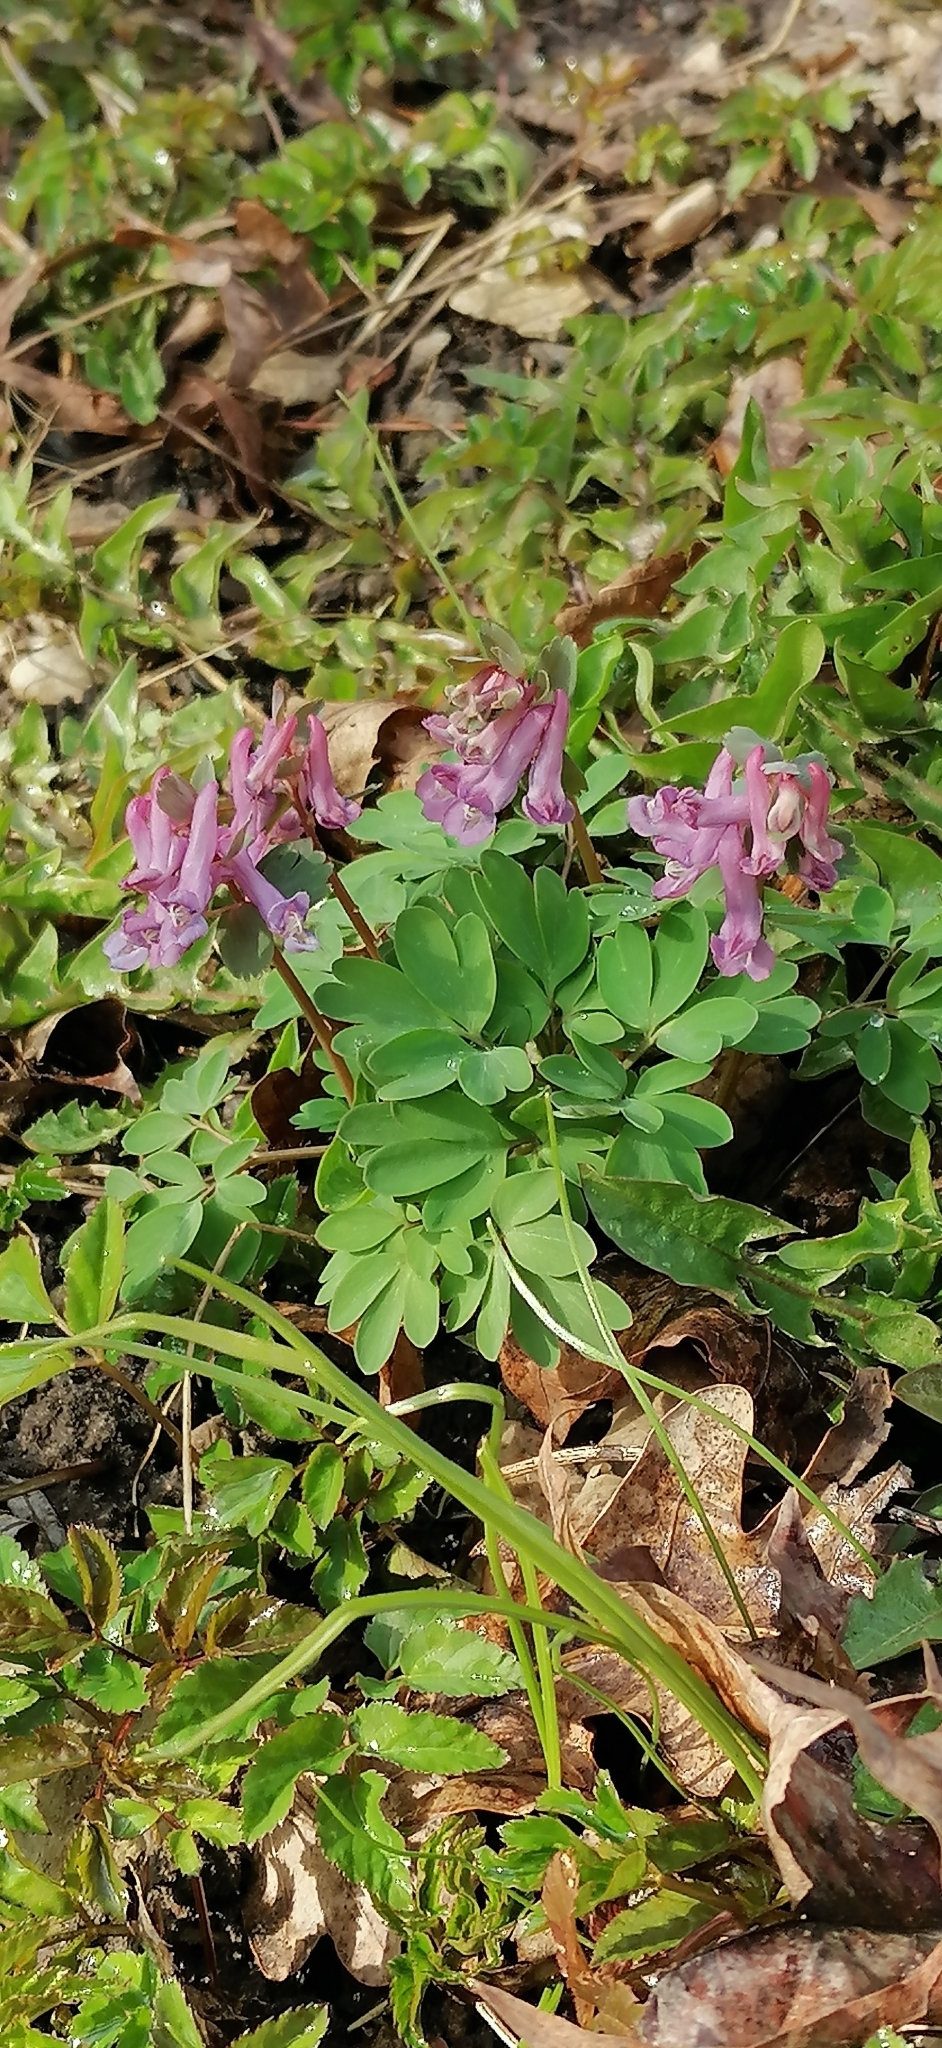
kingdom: Plantae
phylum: Tracheophyta
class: Magnoliopsida
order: Ranunculales
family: Papaveraceae
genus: Corydalis
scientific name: Corydalis solida
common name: Bird-in-a-bush
